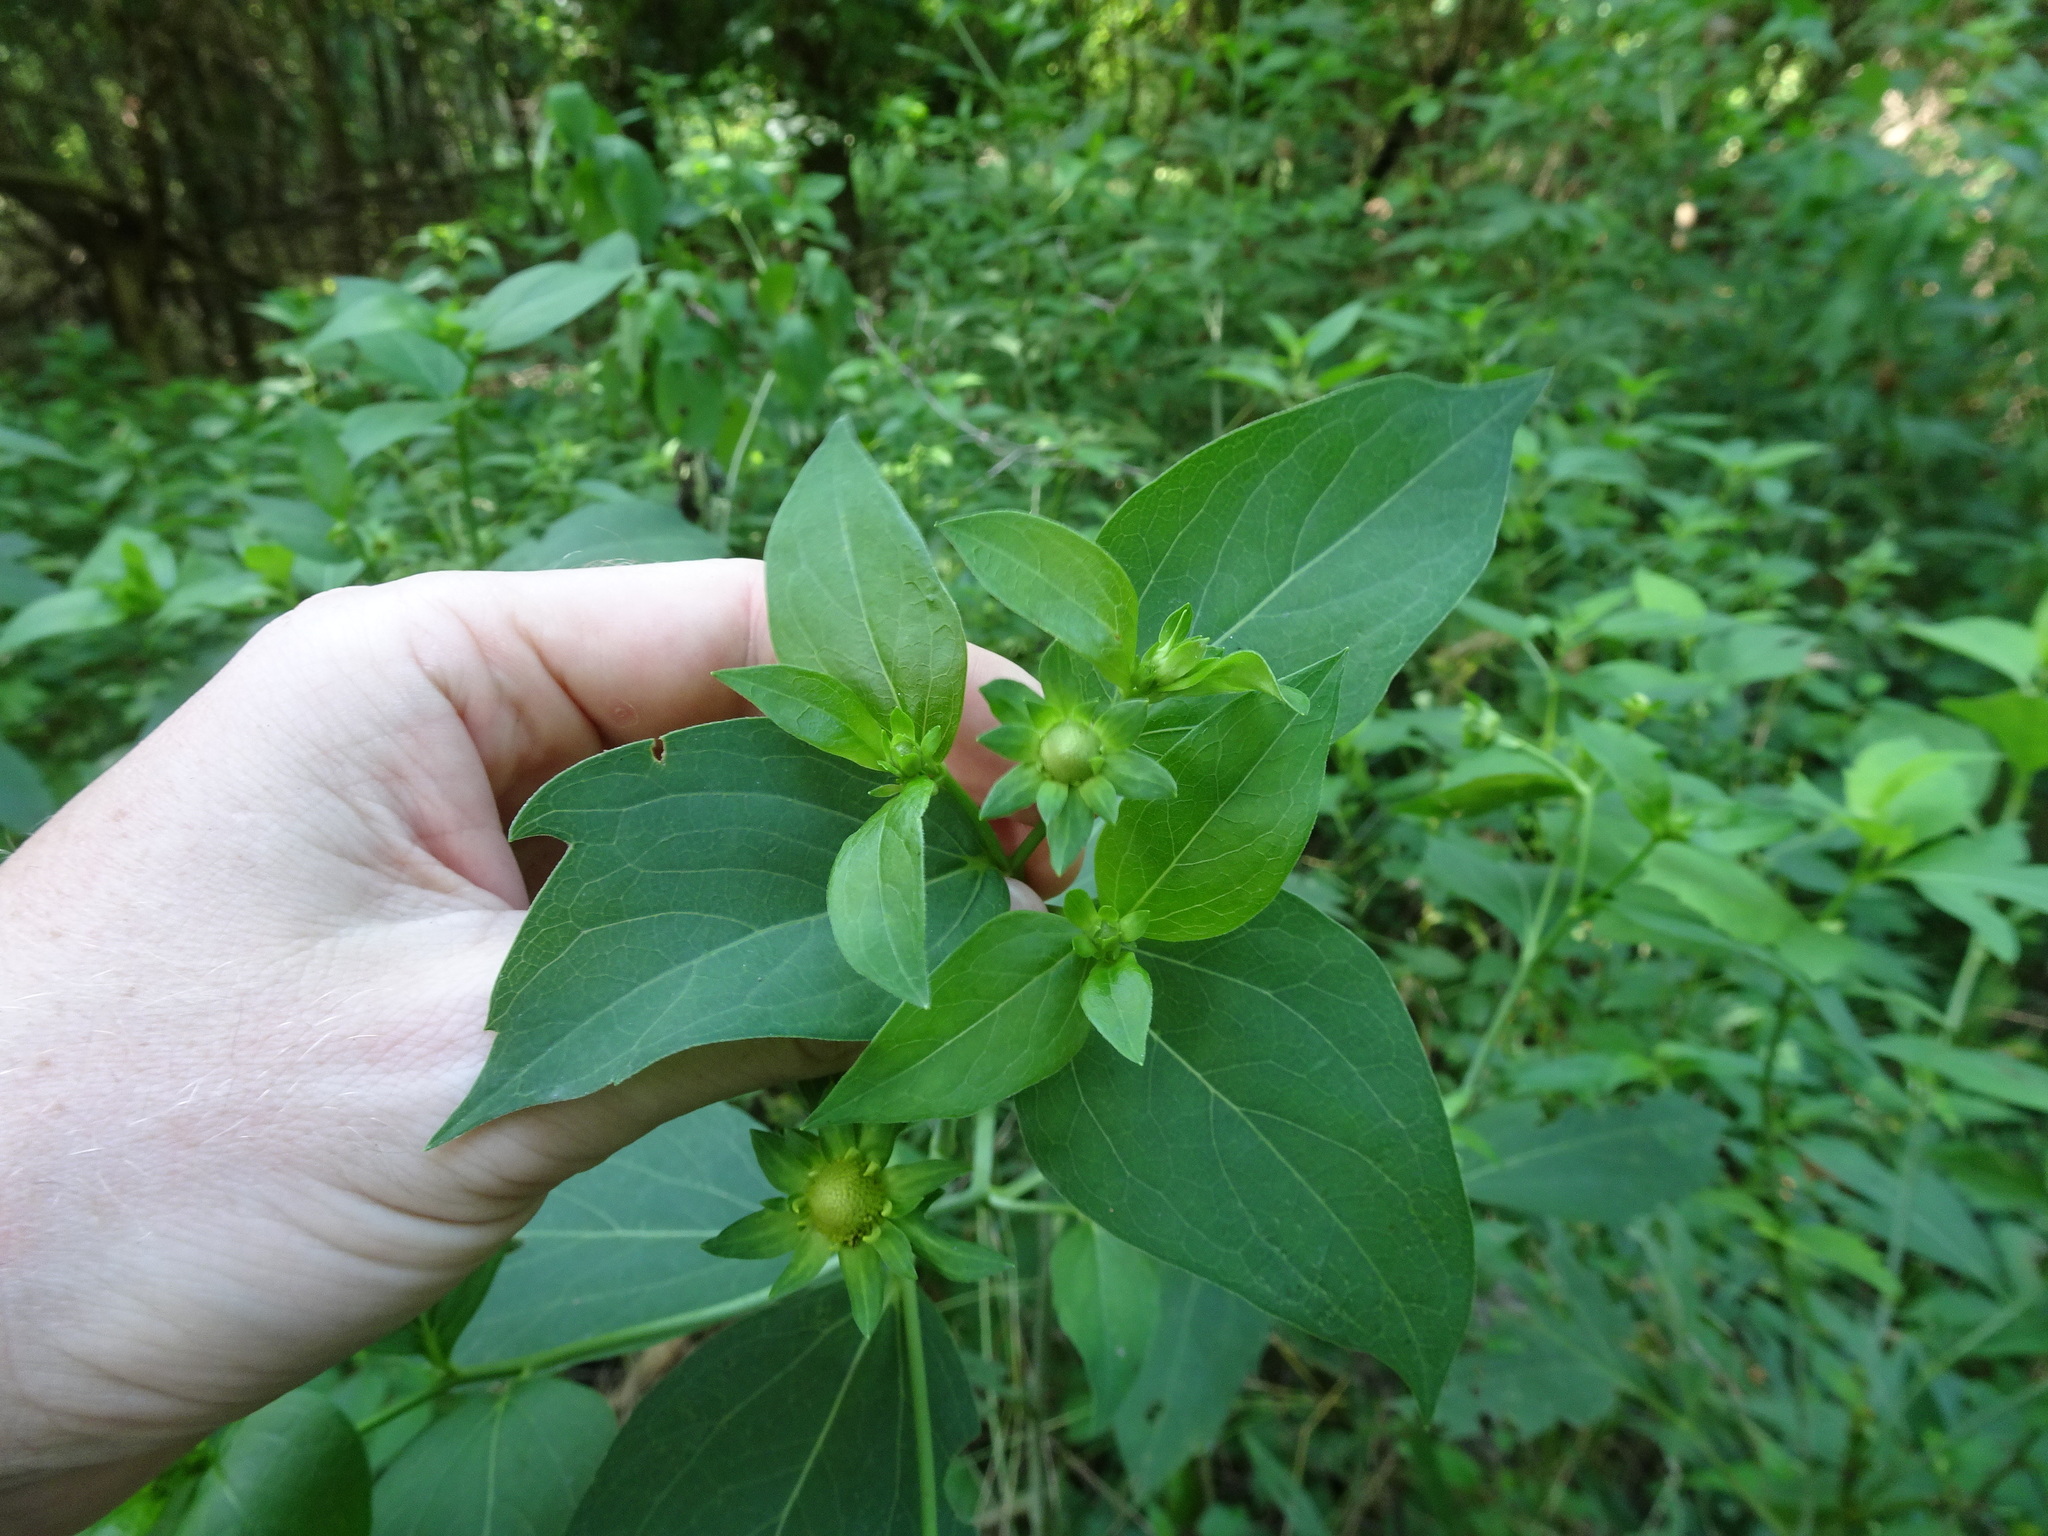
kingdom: Plantae
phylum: Tracheophyta
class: Magnoliopsida
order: Asterales
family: Asteraceae
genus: Rudbeckia
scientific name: Rudbeckia laciniata
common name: Coneflower
